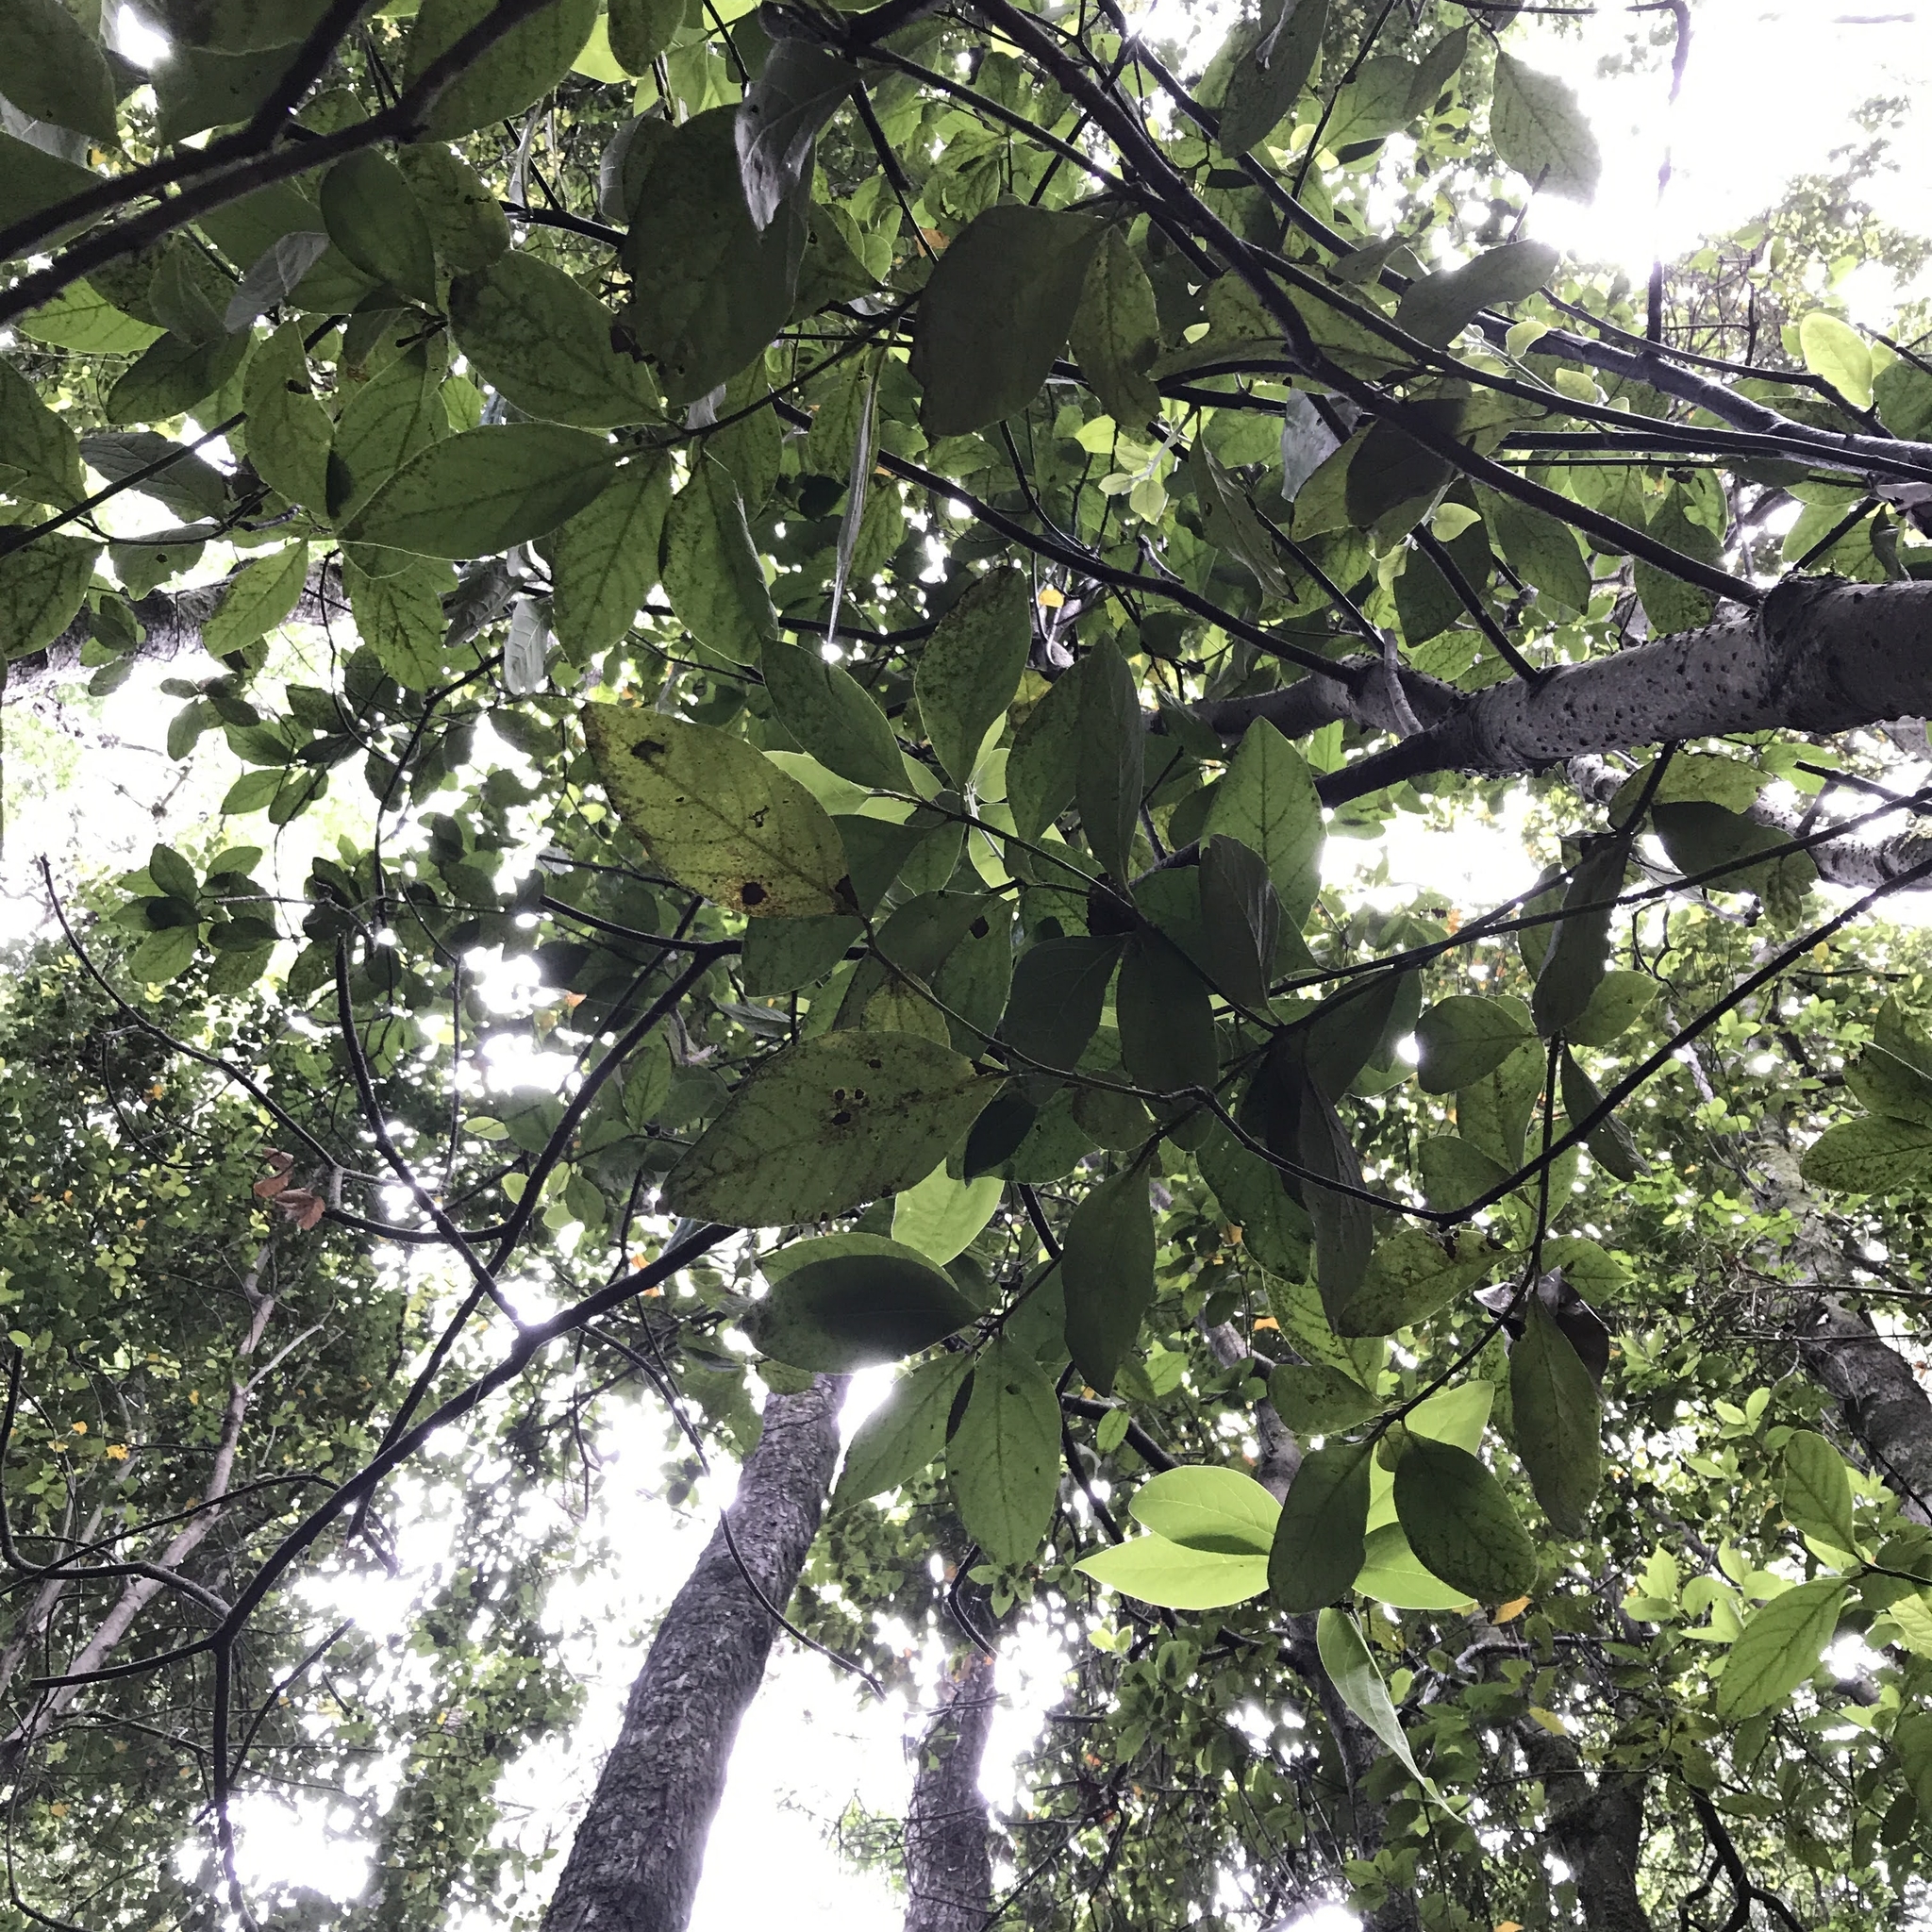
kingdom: Plantae
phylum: Tracheophyta
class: Magnoliopsida
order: Laurales
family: Lauraceae
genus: Persea
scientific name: Persea lingue
